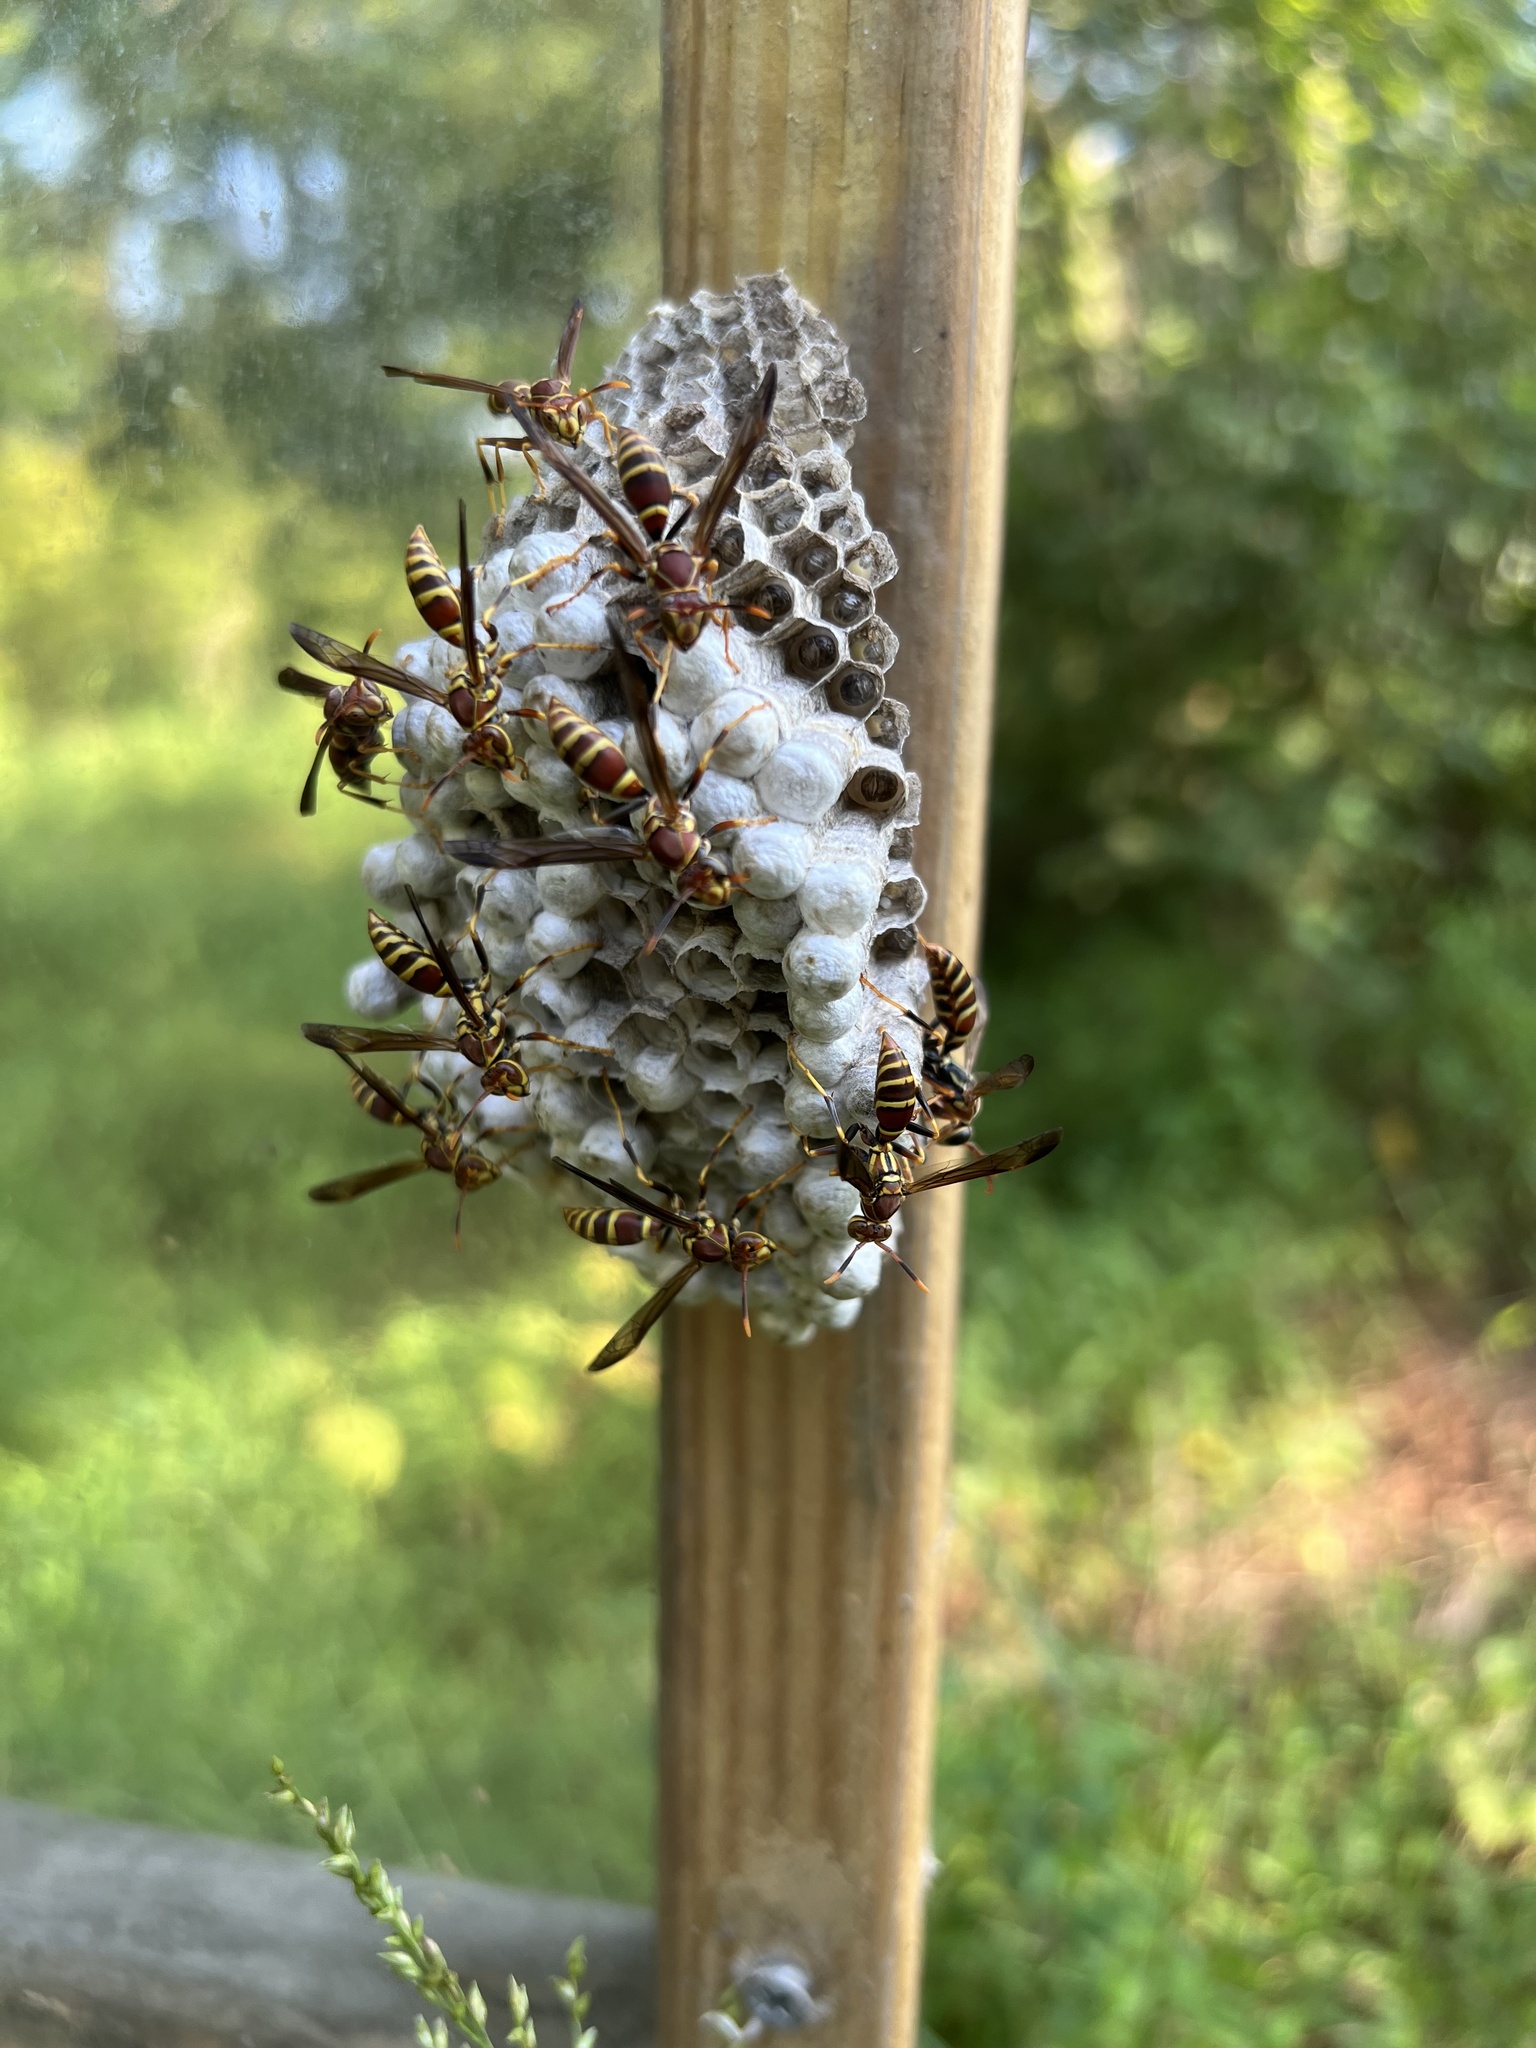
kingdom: Animalia
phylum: Arthropoda
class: Insecta
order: Hymenoptera
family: Eumenidae
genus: Polistes
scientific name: Polistes exclamans
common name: Paper wasp
